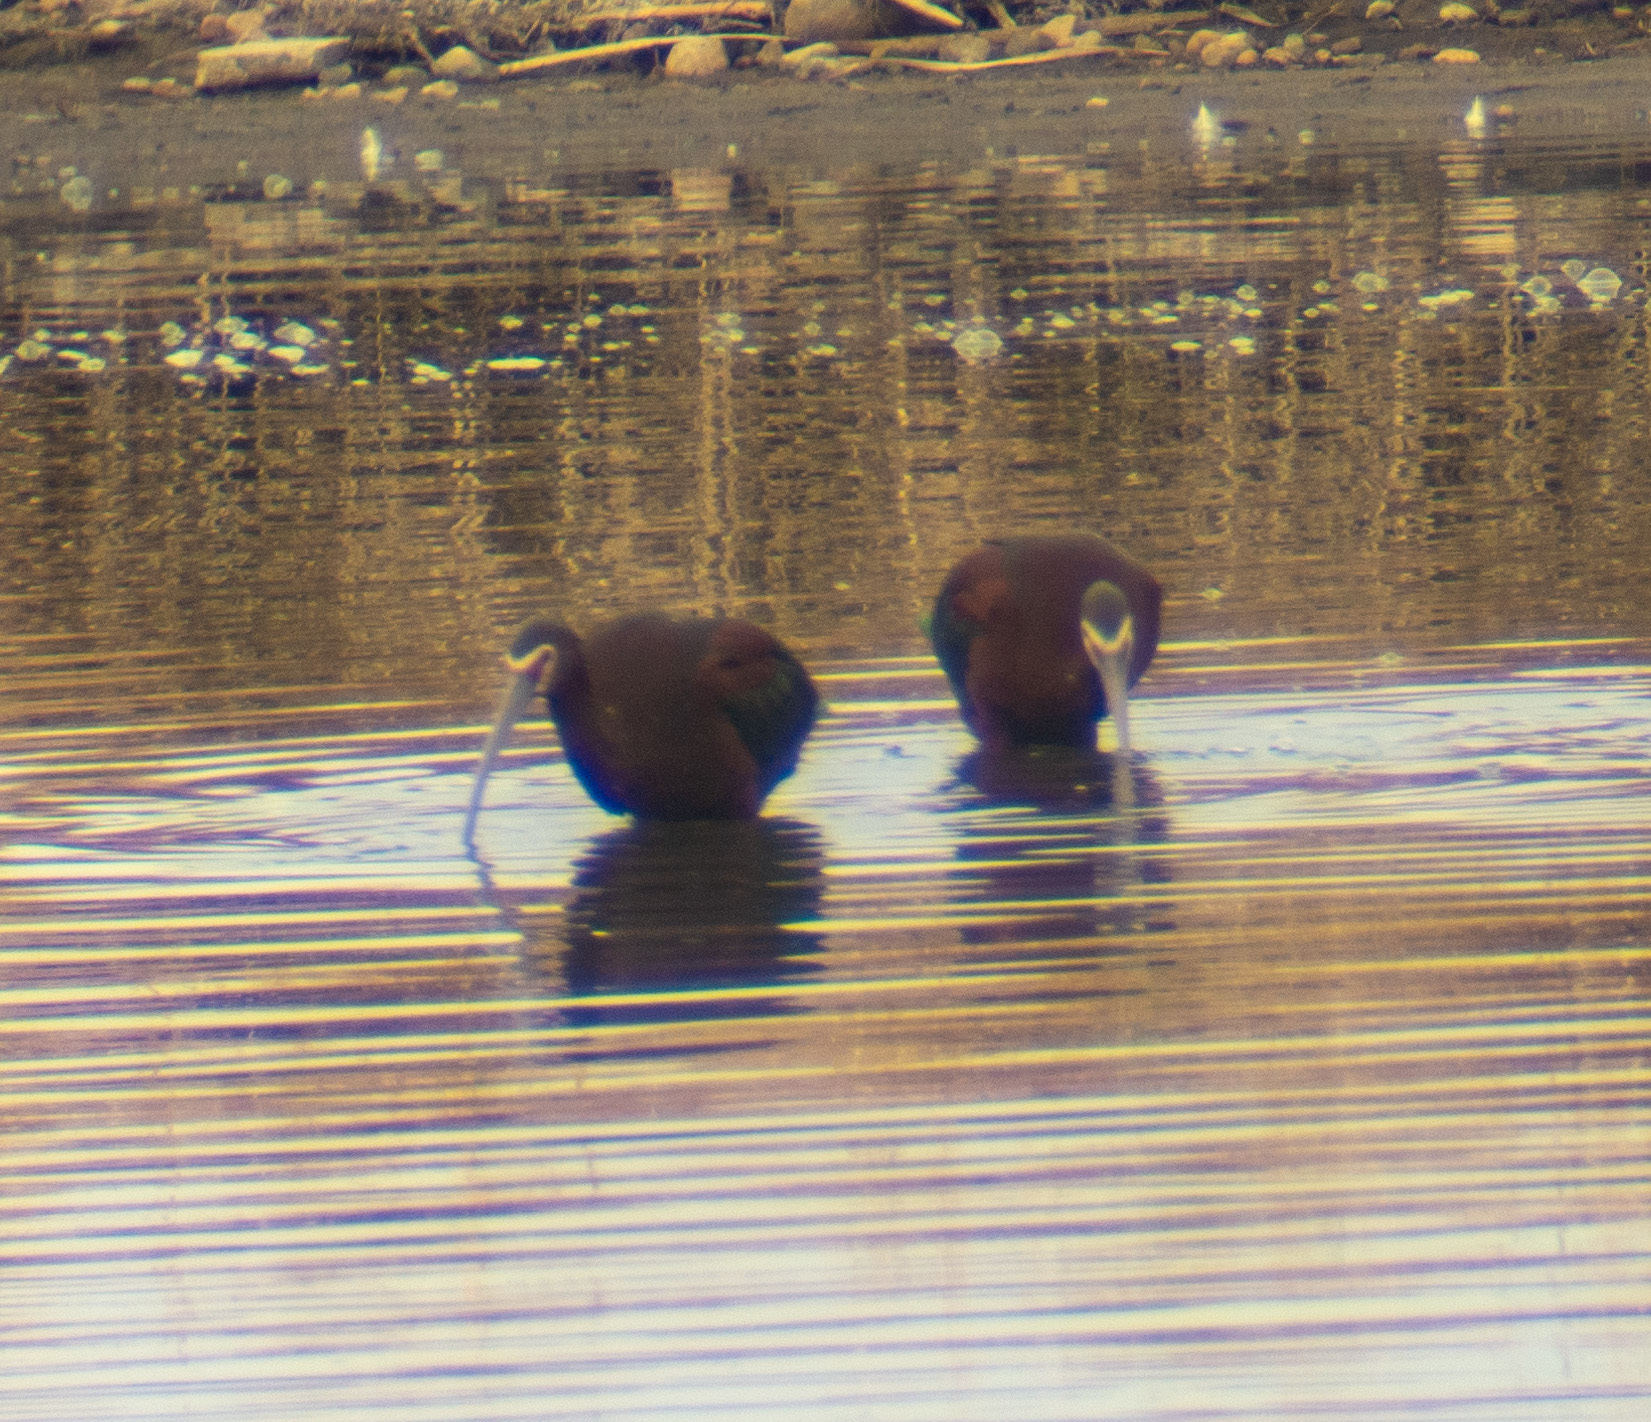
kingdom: Animalia
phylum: Chordata
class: Aves
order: Pelecaniformes
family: Threskiornithidae
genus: Plegadis
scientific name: Plegadis chihi
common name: White-faced ibis
